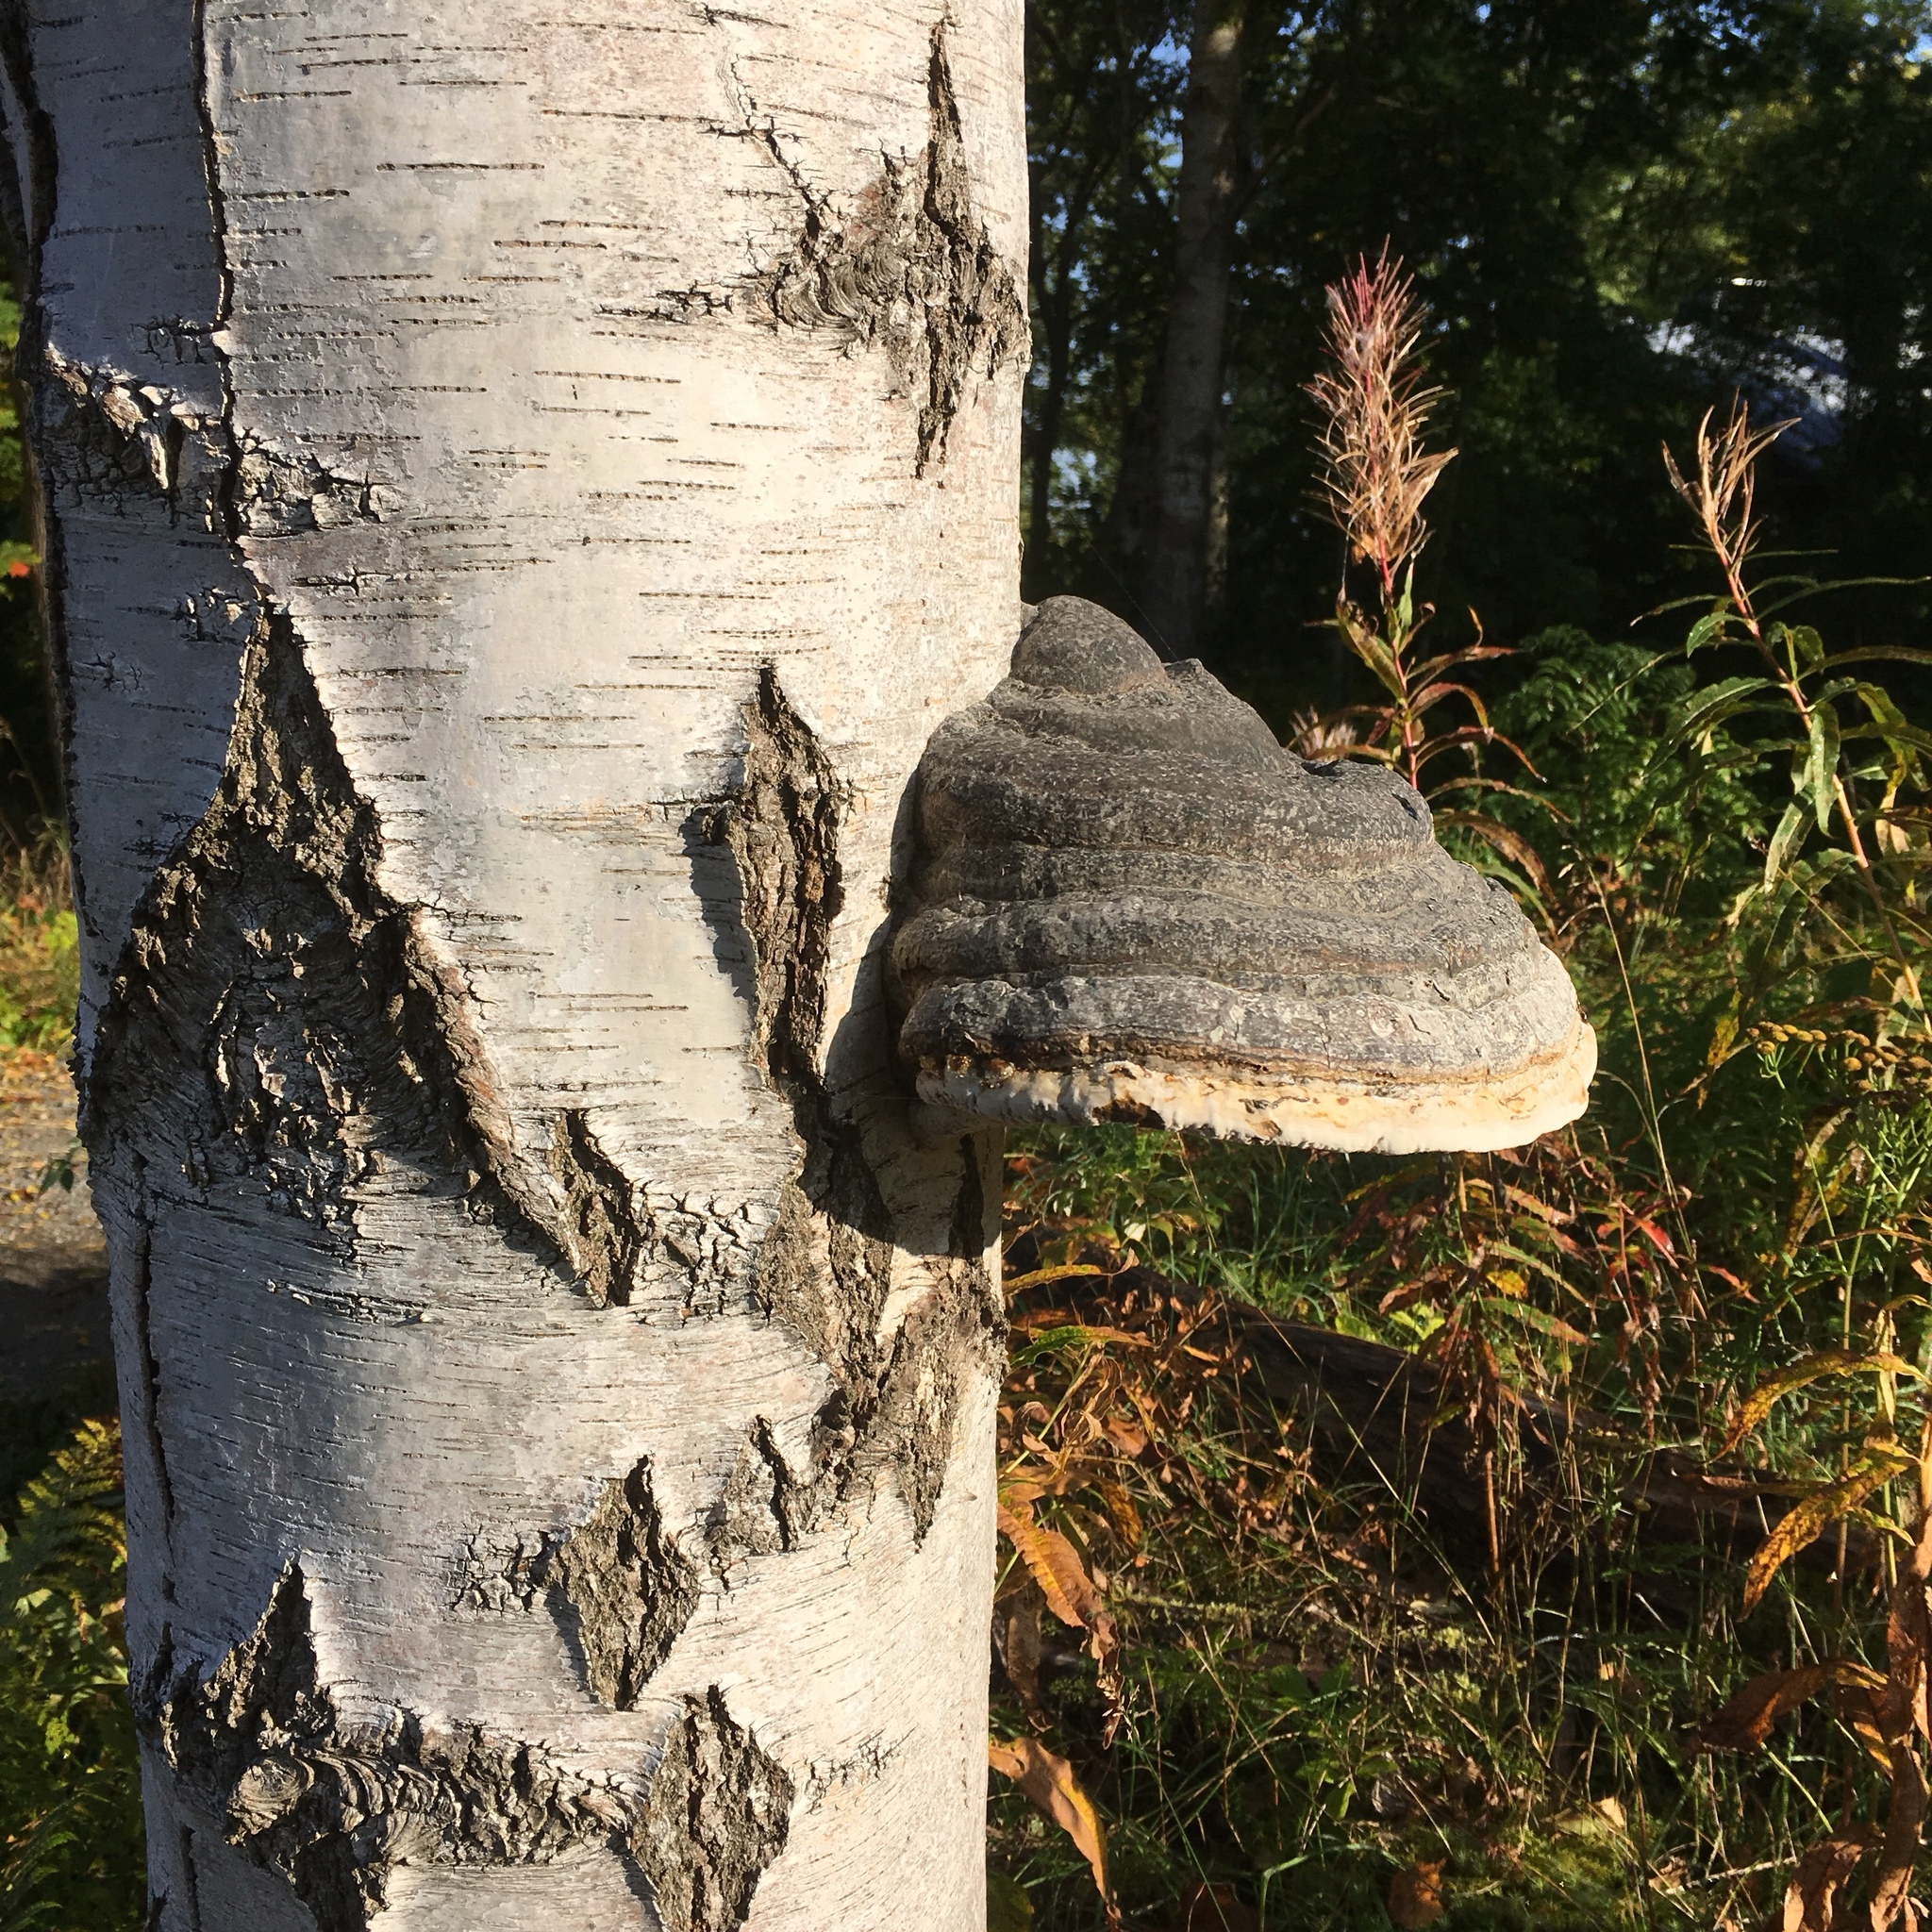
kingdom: Fungi
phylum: Basidiomycota
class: Agaricomycetes
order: Polyporales
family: Polyporaceae
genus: Fomes
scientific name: Fomes fomentarius
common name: Hoof fungus
